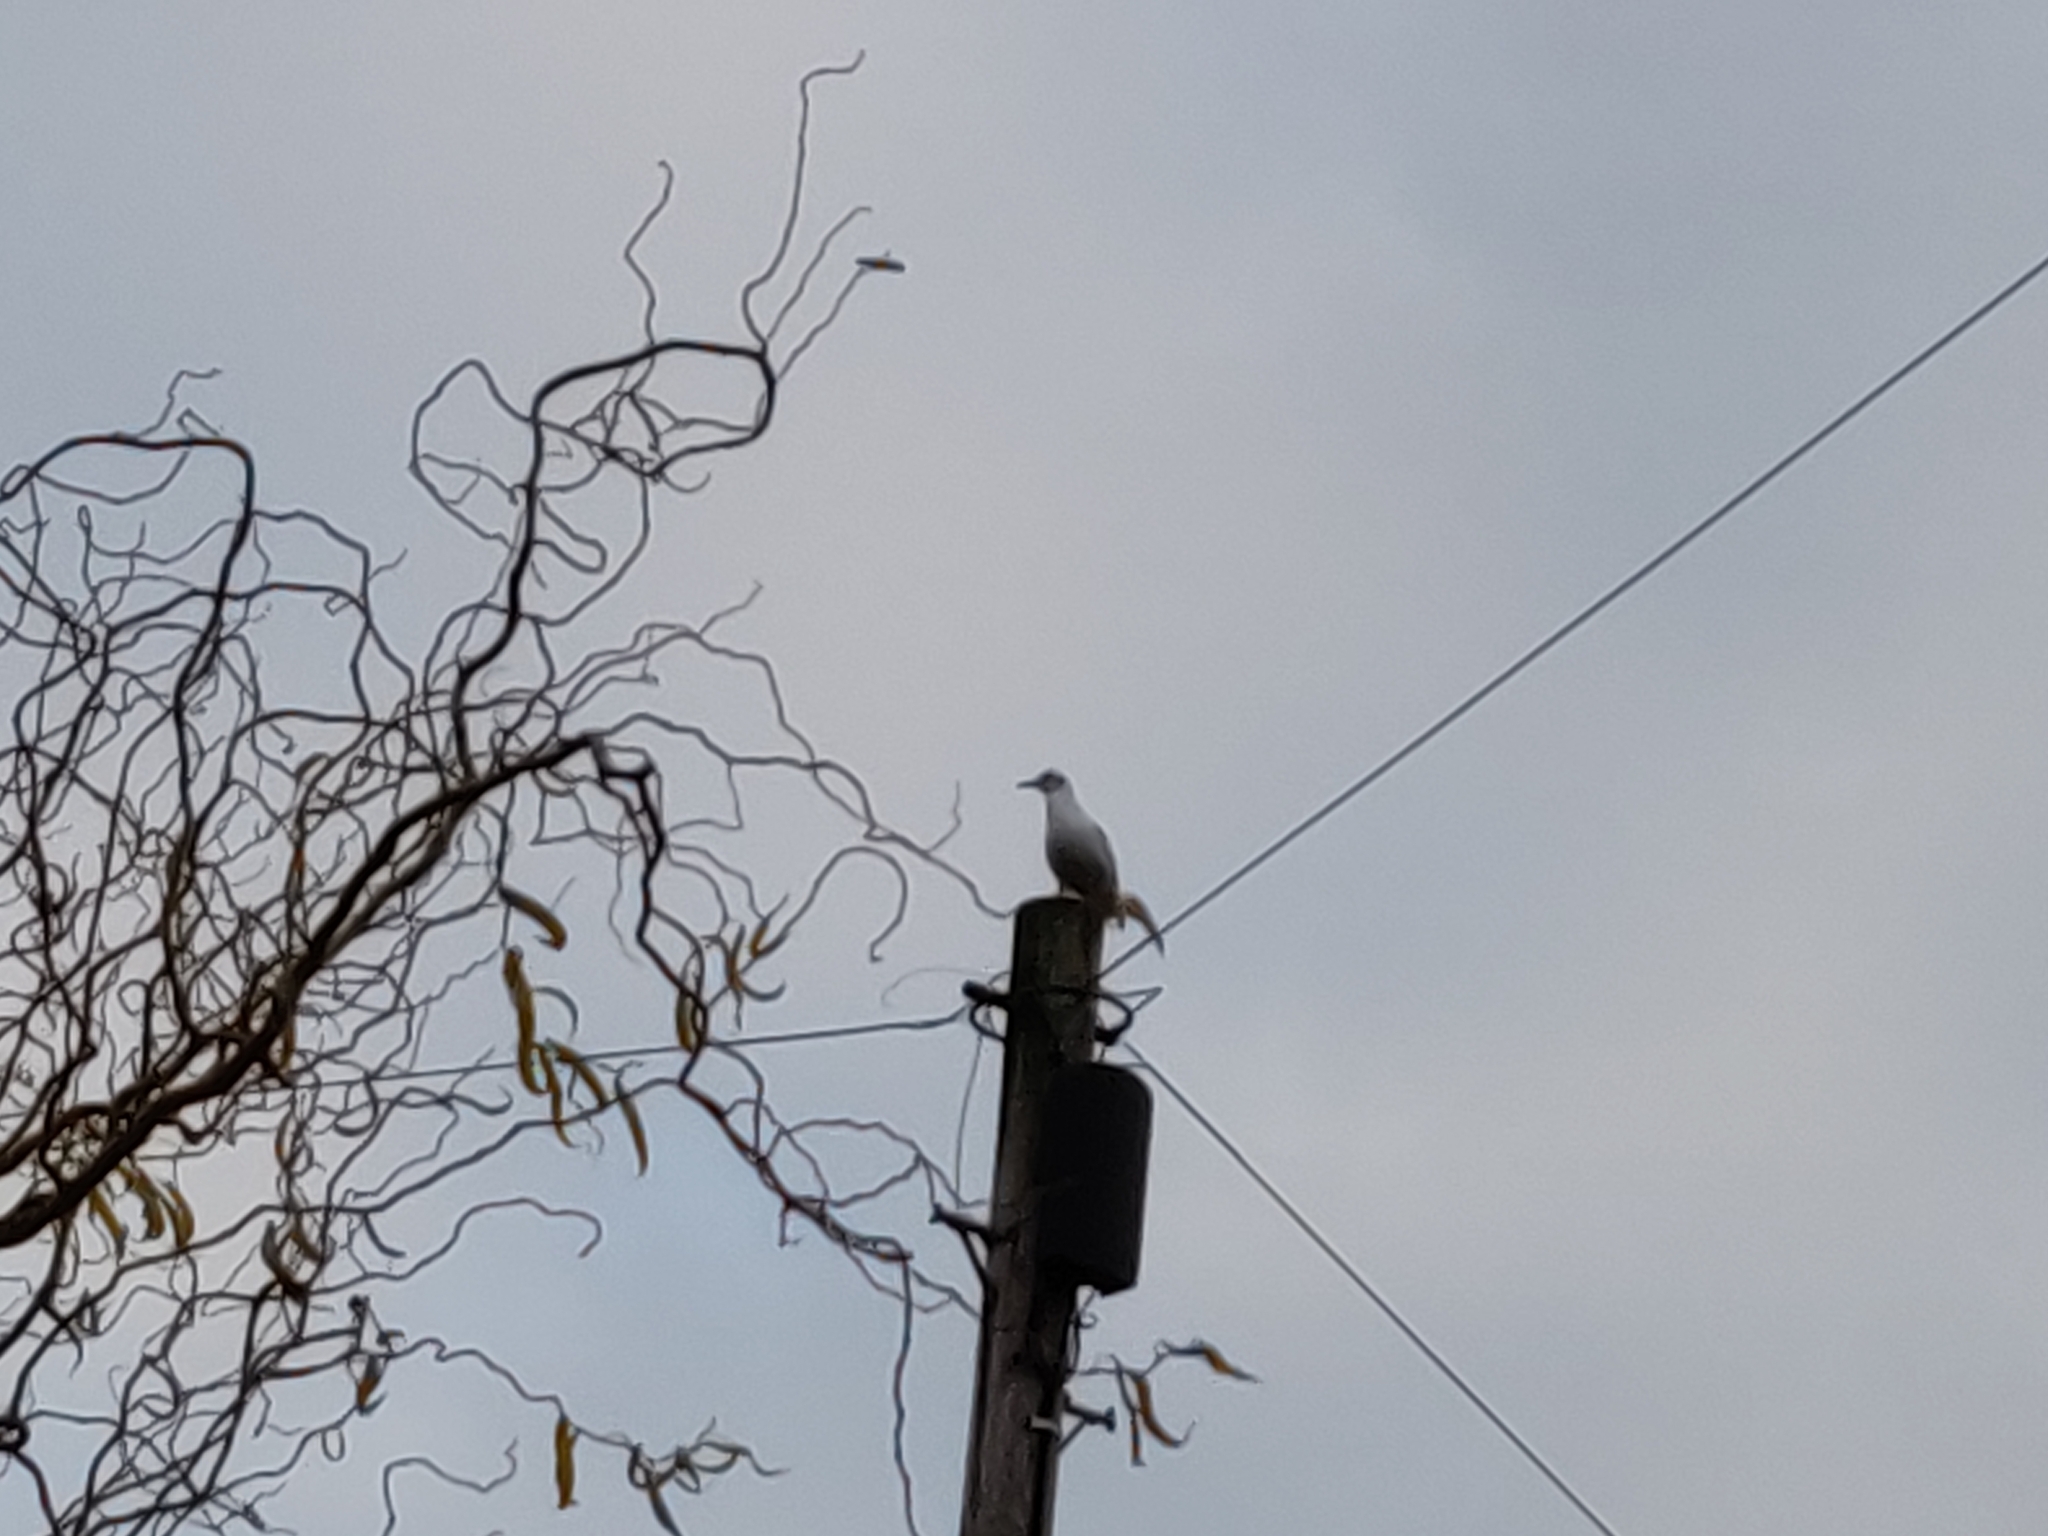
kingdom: Animalia
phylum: Chordata
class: Aves
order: Charadriiformes
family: Laridae
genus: Larus
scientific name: Larus argentatus
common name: Herring gull
